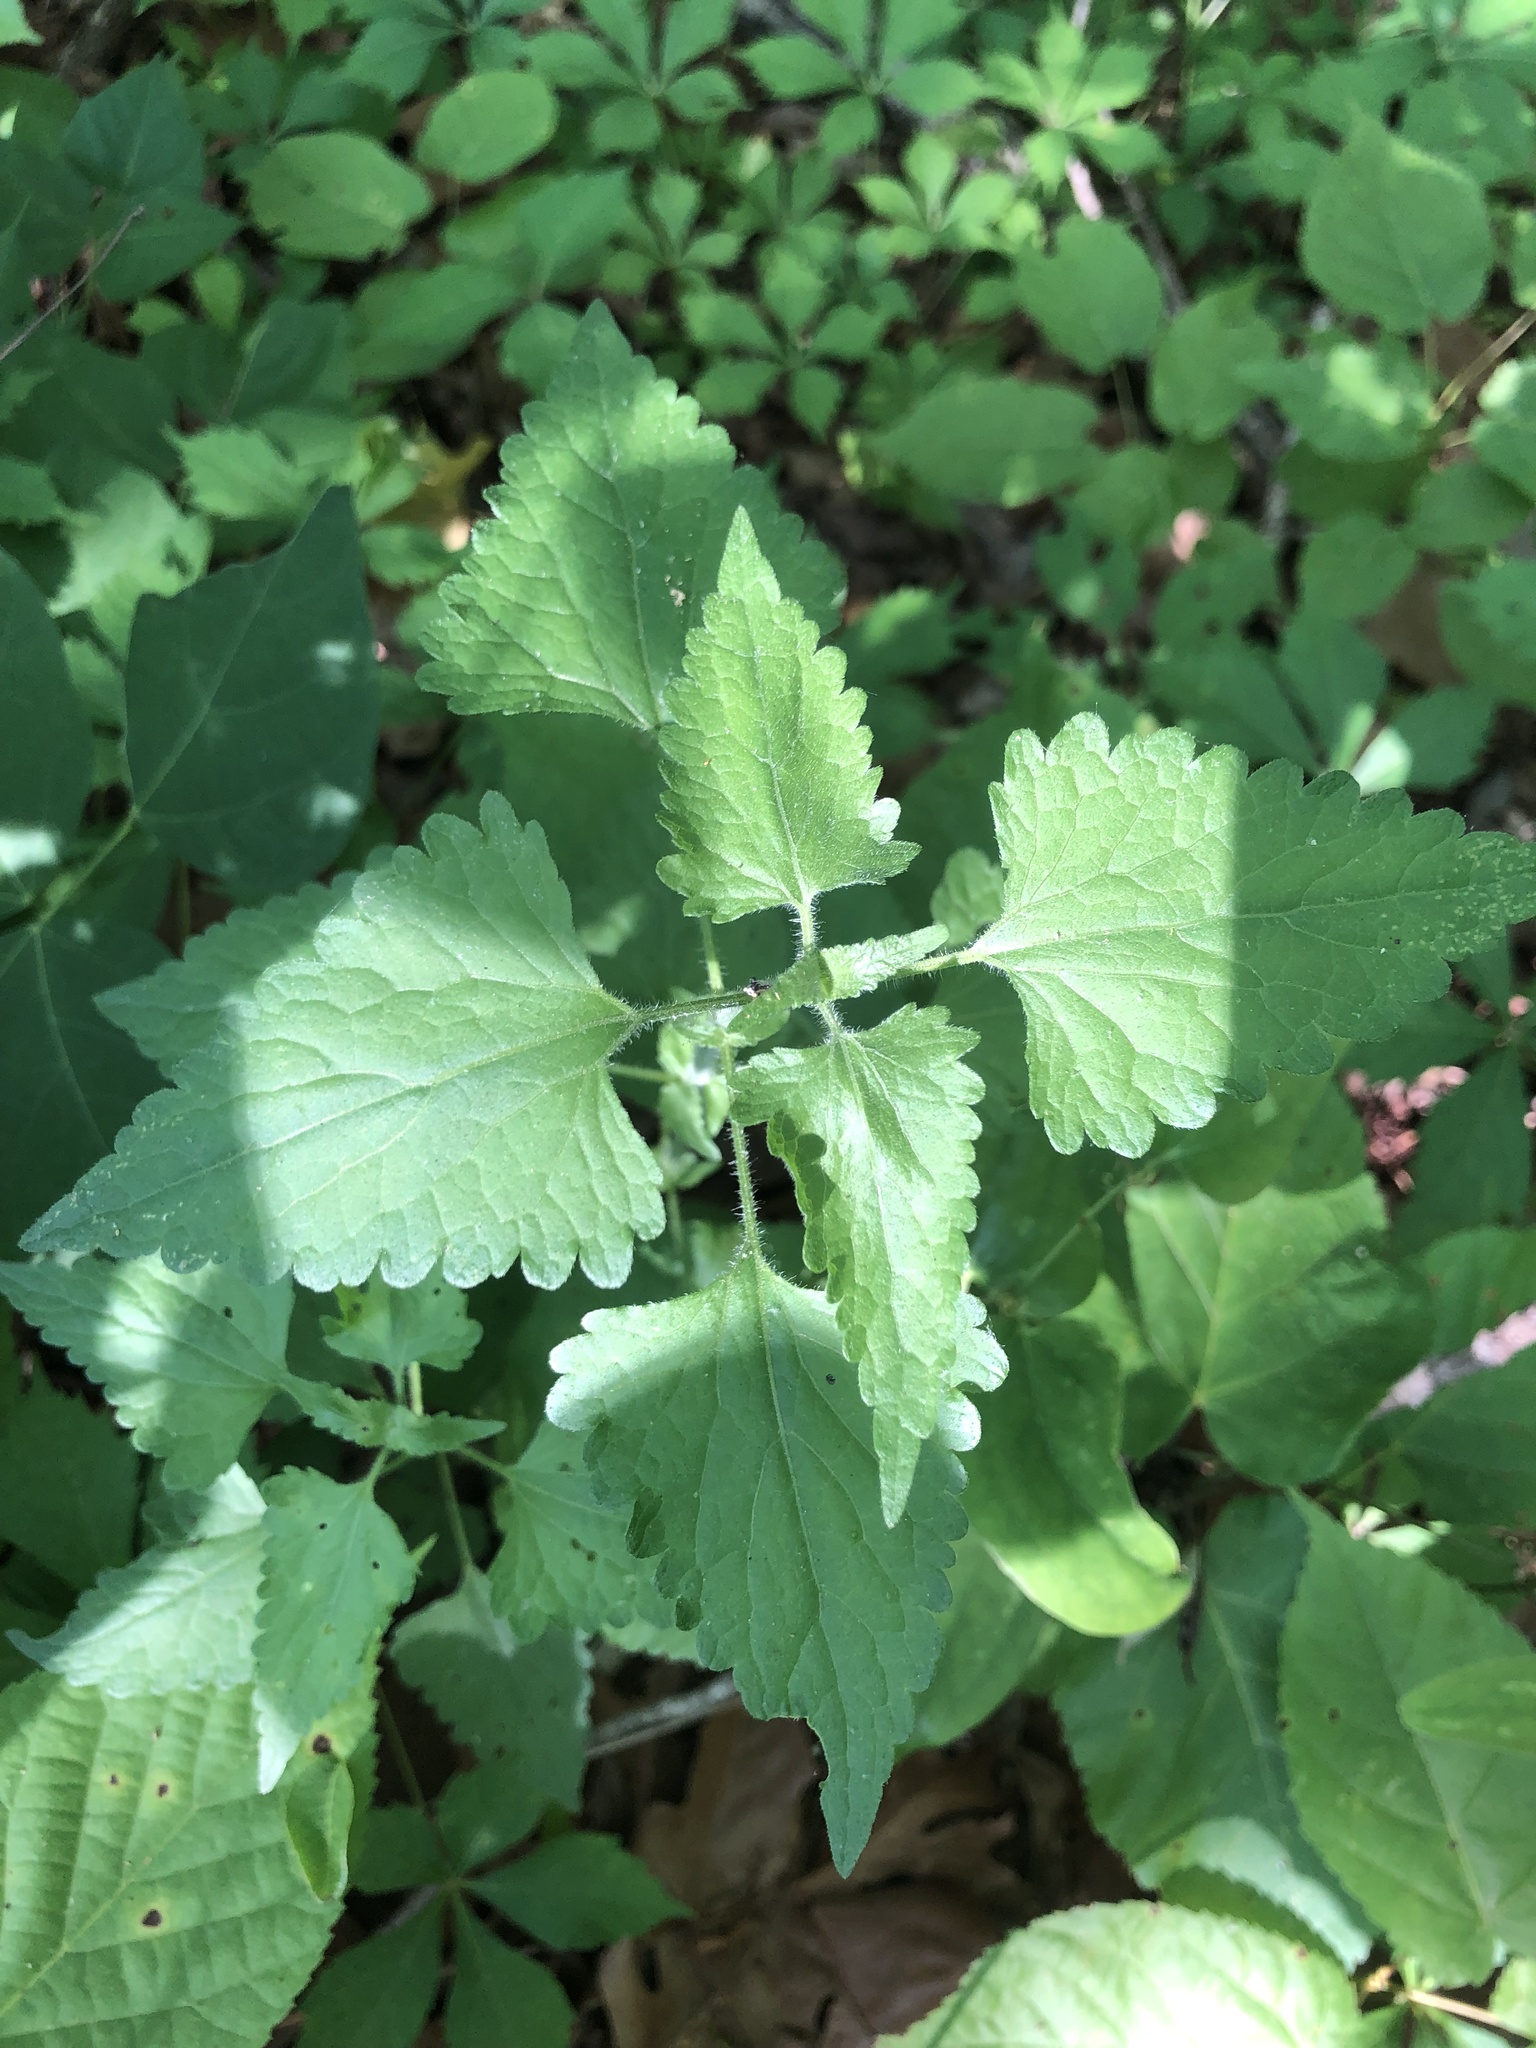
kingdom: Plantae
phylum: Tracheophyta
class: Magnoliopsida
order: Asterales
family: Asteraceae
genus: Fleischmannia
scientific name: Fleischmannia incarnata
